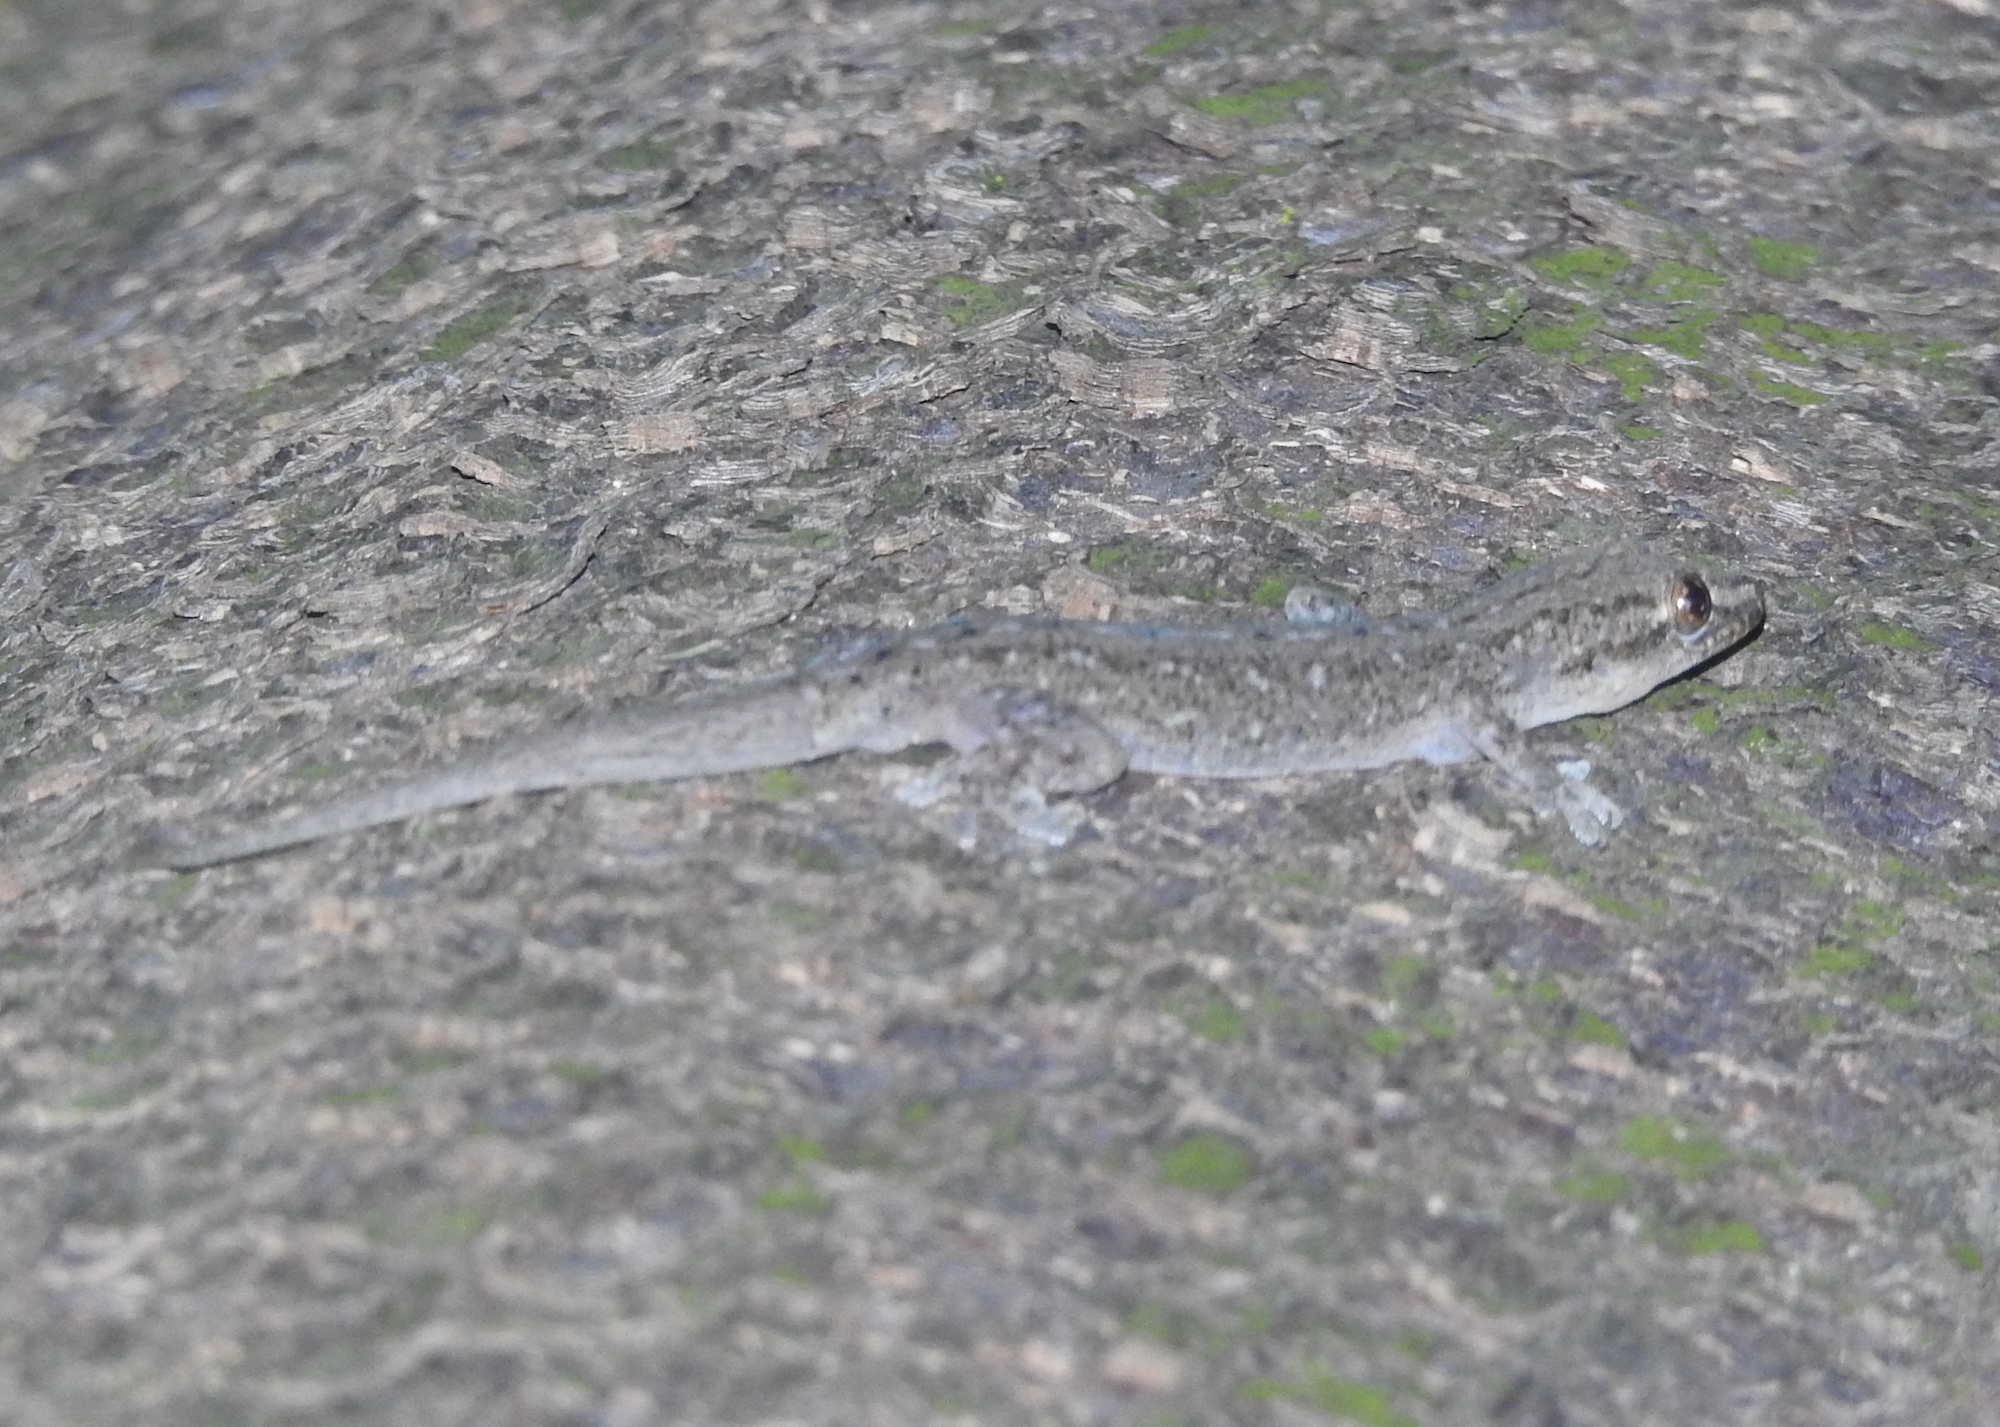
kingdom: Animalia
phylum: Chordata
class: Squamata
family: Gekkonidae
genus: Hemidactylus
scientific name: Hemidactylus frenatus
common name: Common house gecko
